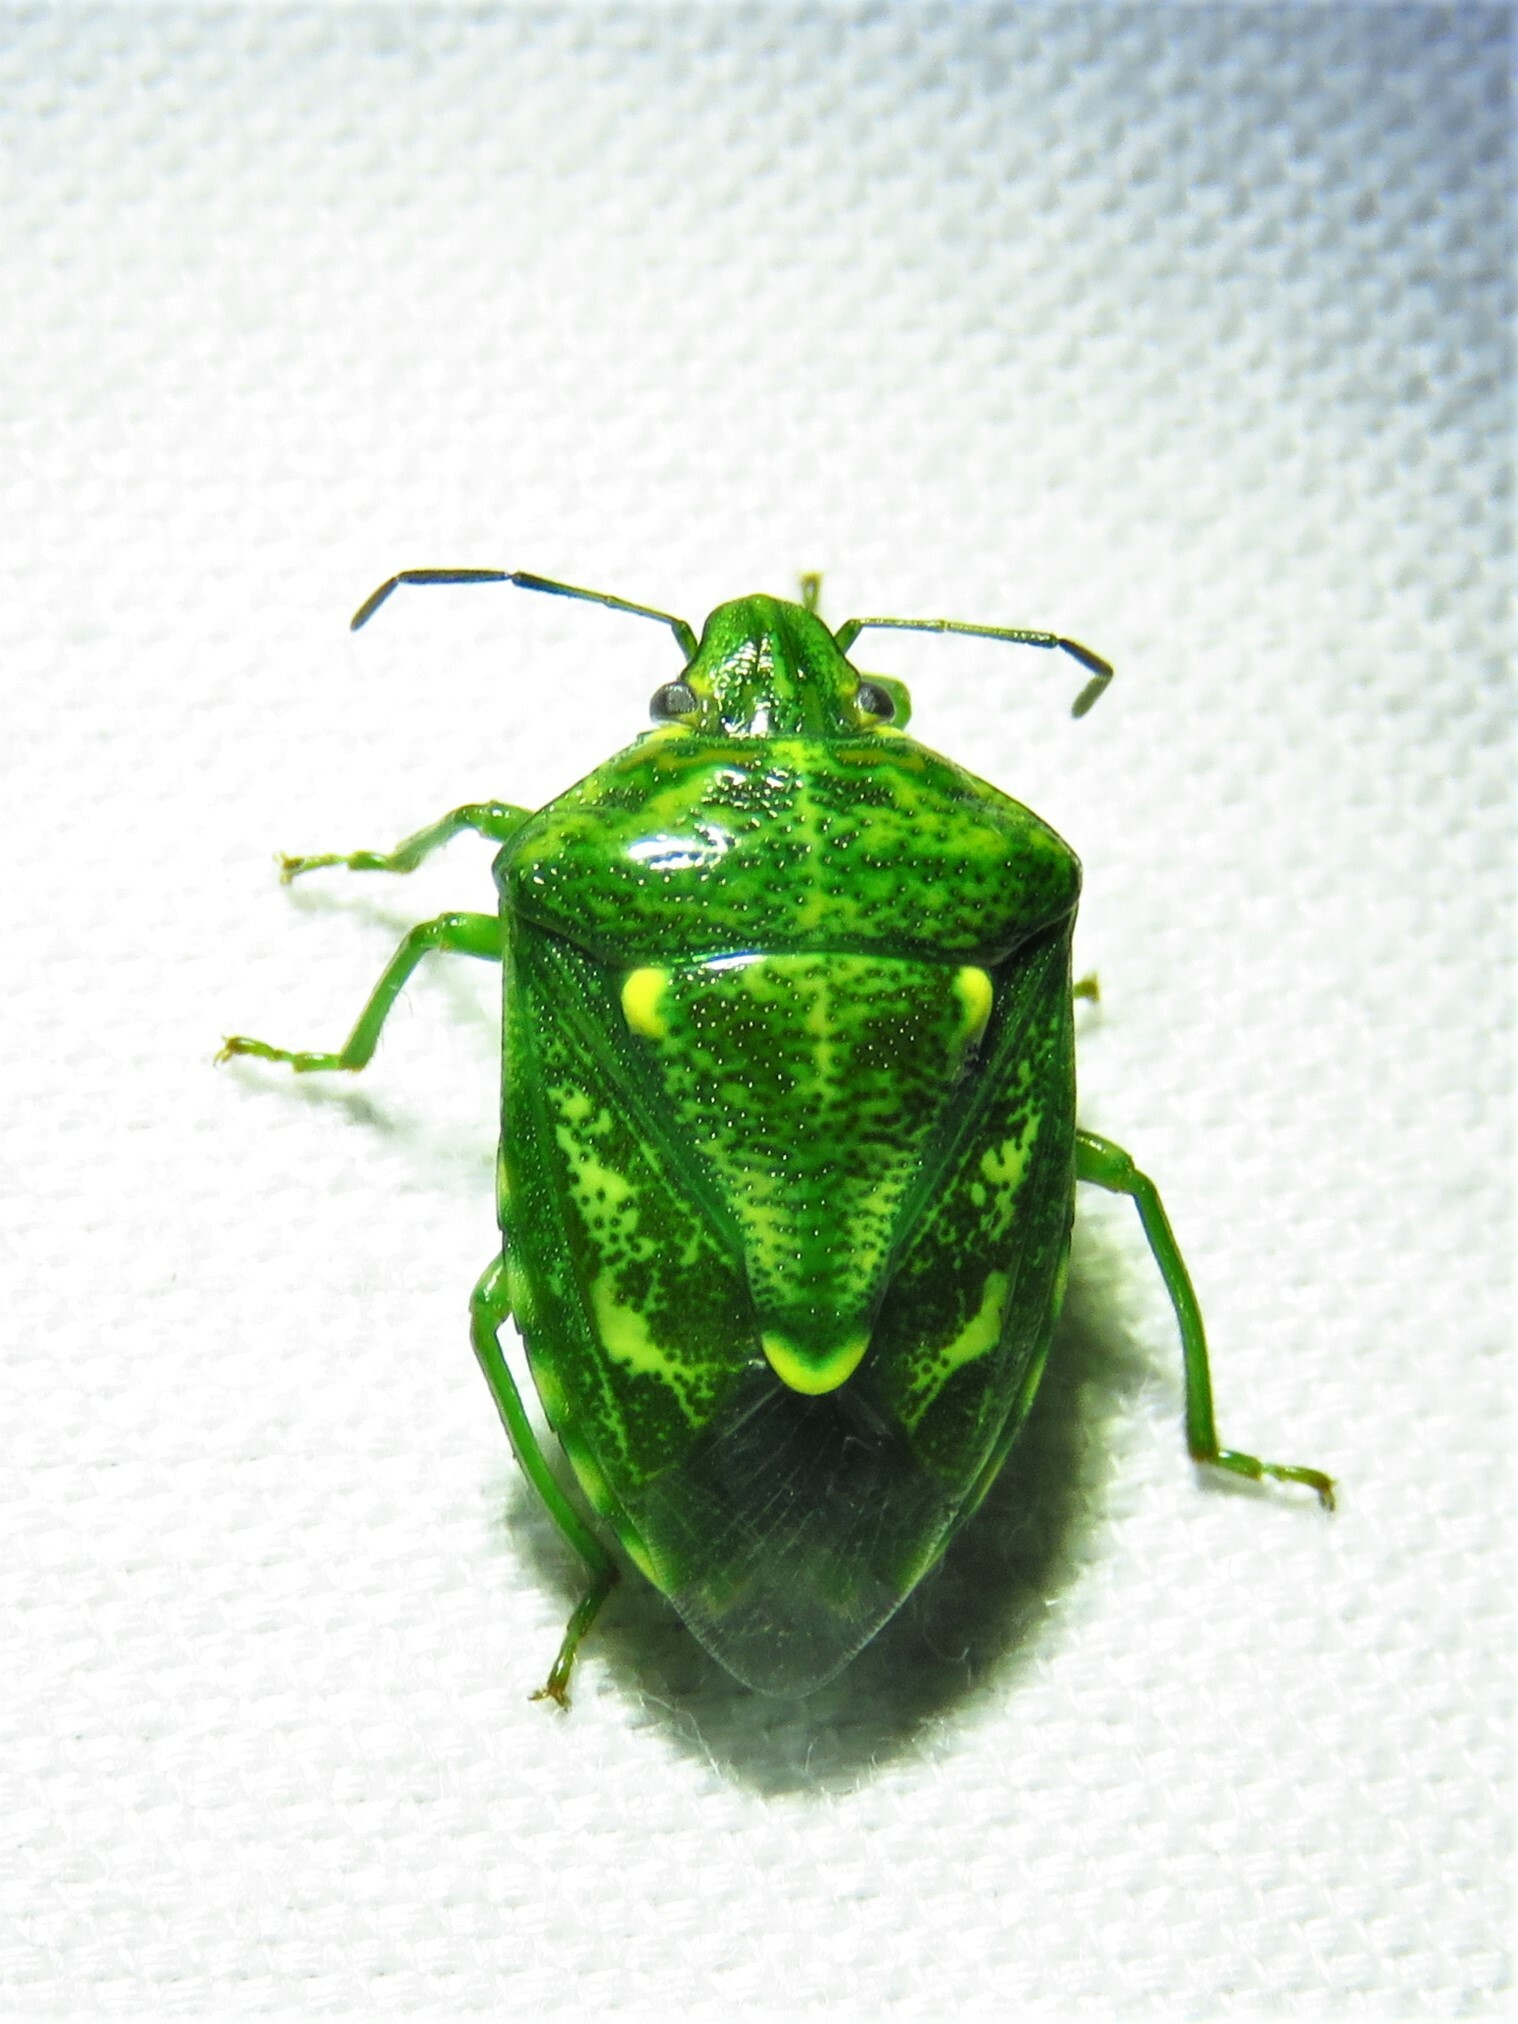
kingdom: Animalia
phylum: Arthropoda
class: Insecta
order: Hemiptera
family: Pentatomidae
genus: Banasa
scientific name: Banasa euchlora
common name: Cedar berry bug
